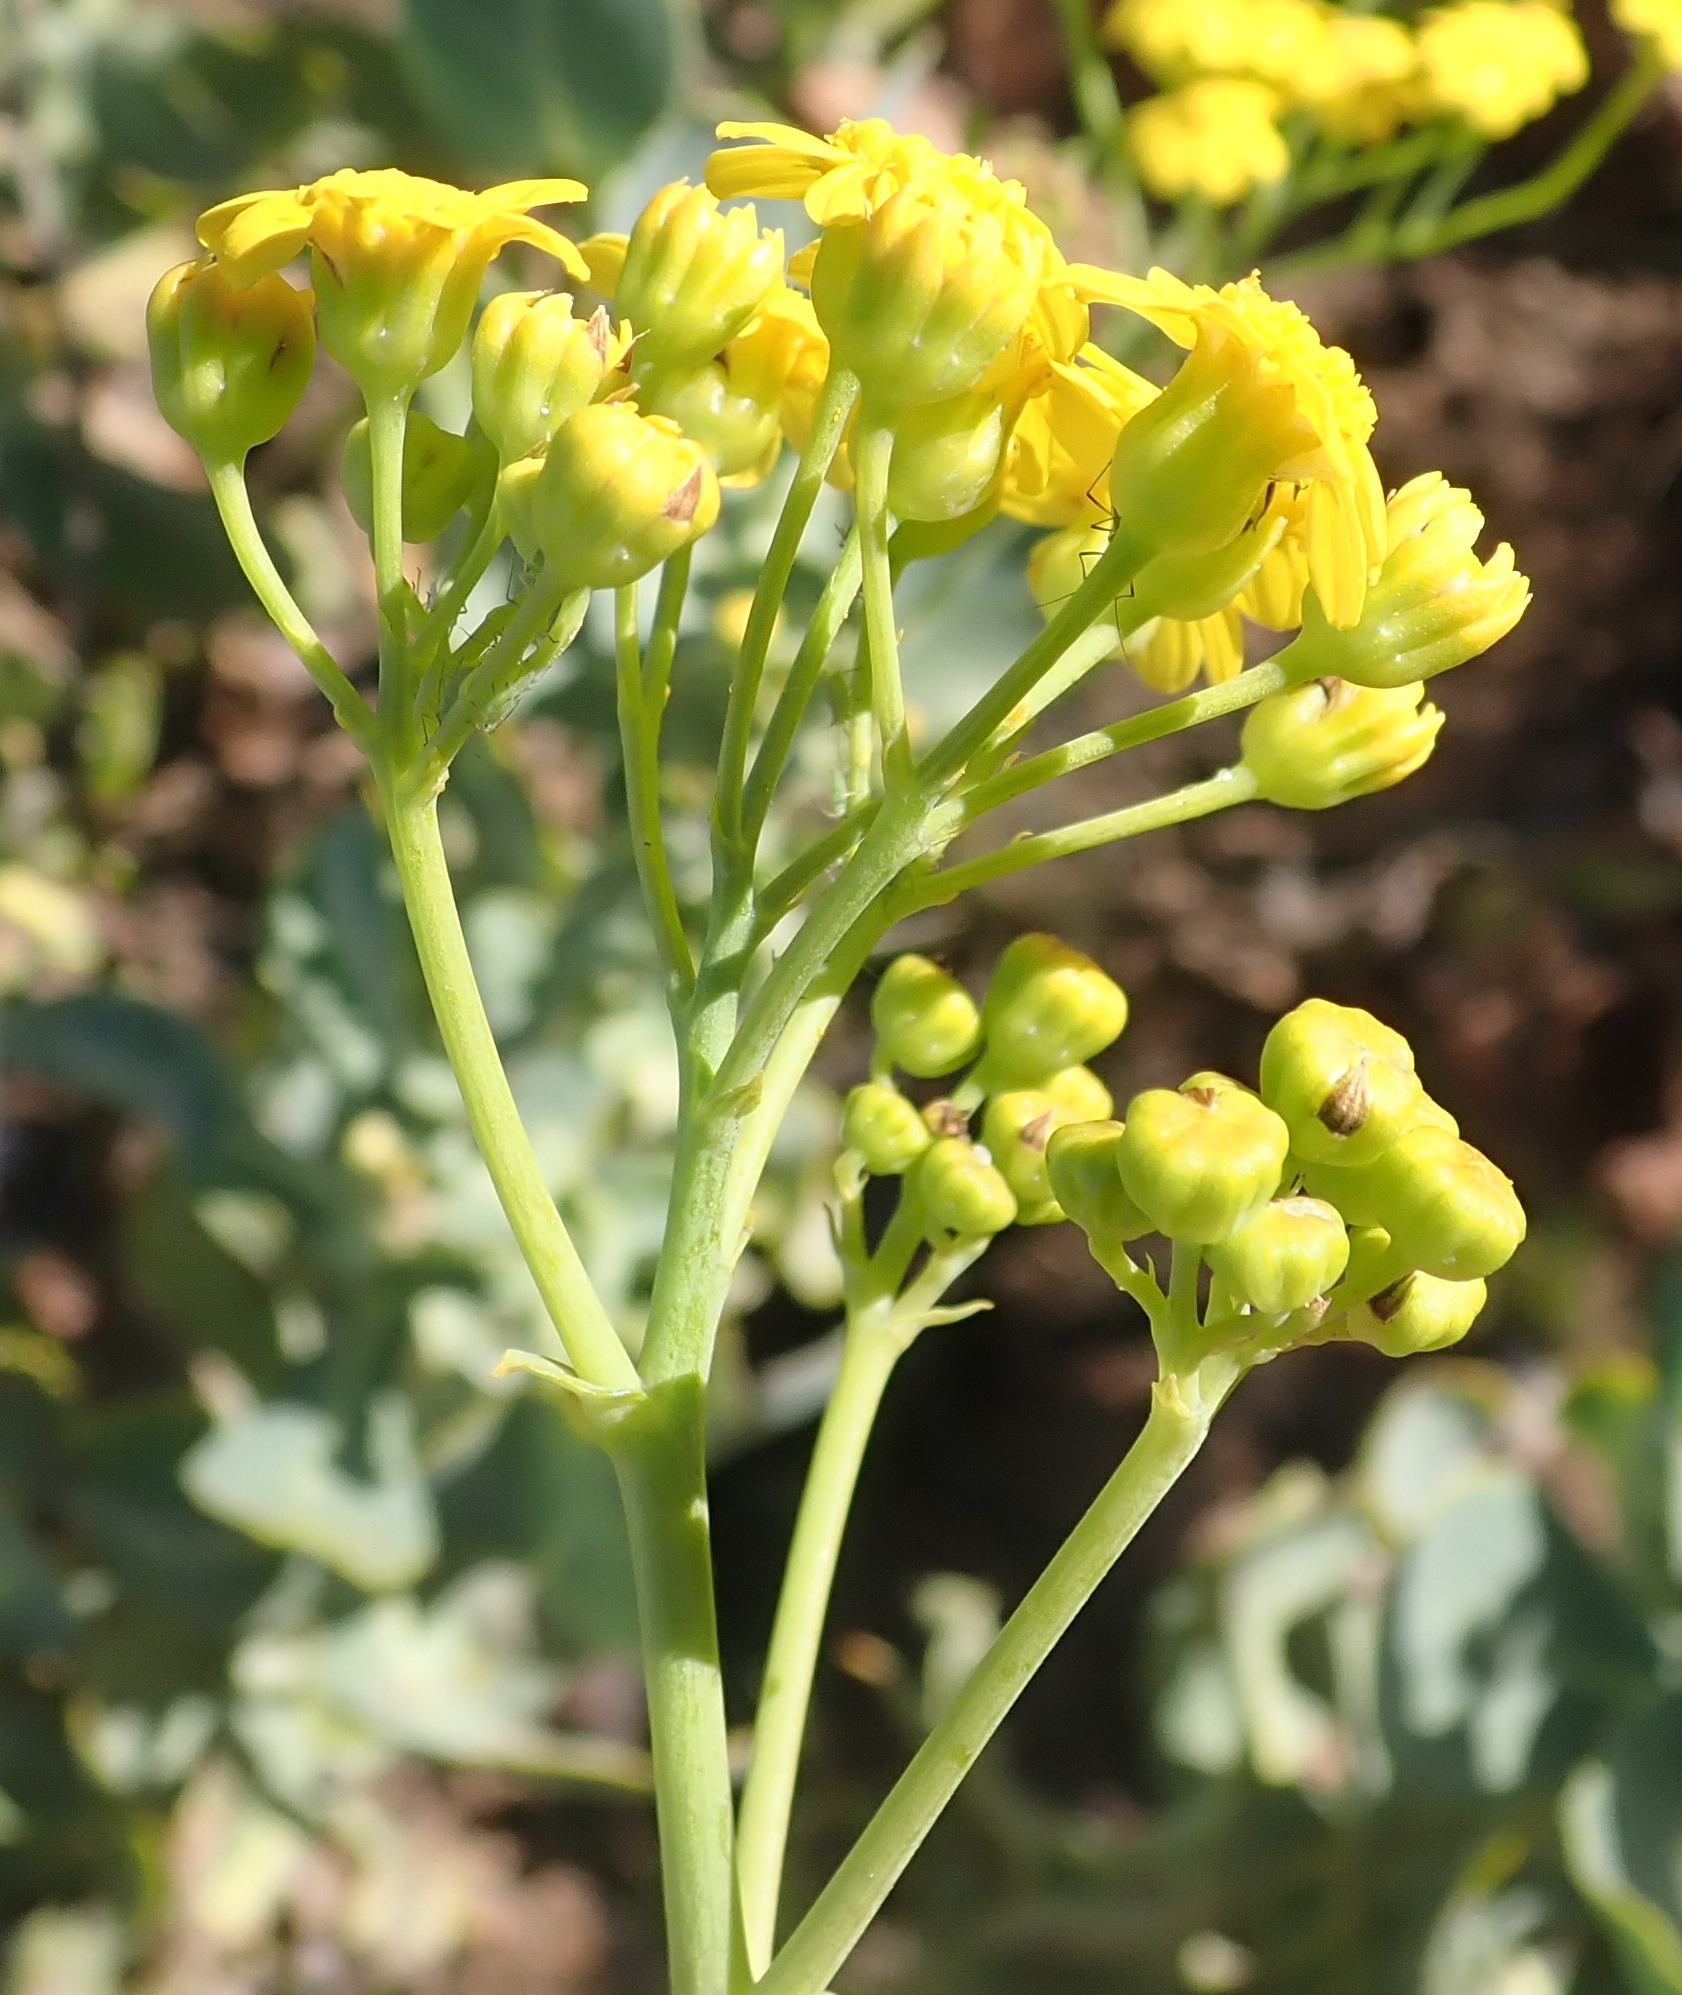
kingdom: Plantae
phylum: Tracheophyta
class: Magnoliopsida
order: Asterales
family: Asteraceae
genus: Othonna
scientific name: Othonna parviflora
